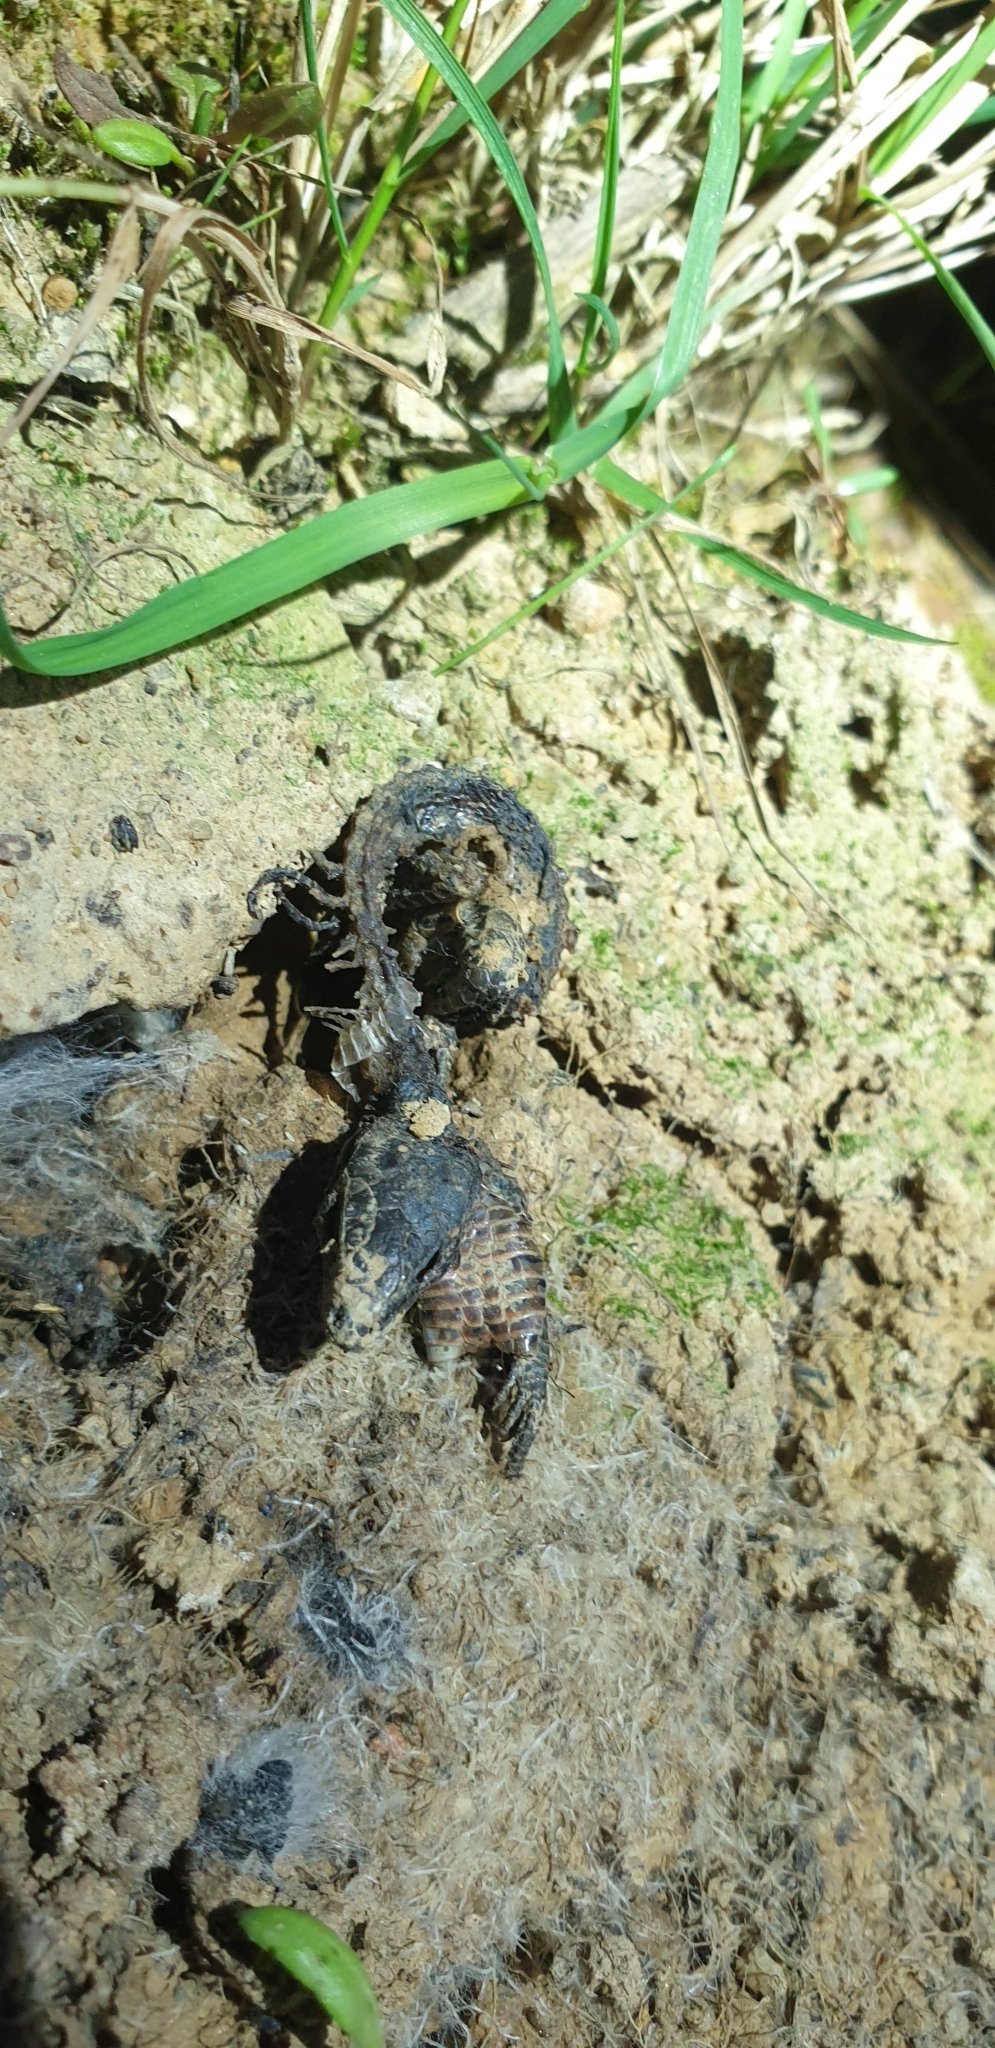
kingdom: Animalia
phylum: Chordata
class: Squamata
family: Lacertidae
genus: Zootoca
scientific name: Zootoca vivipara
